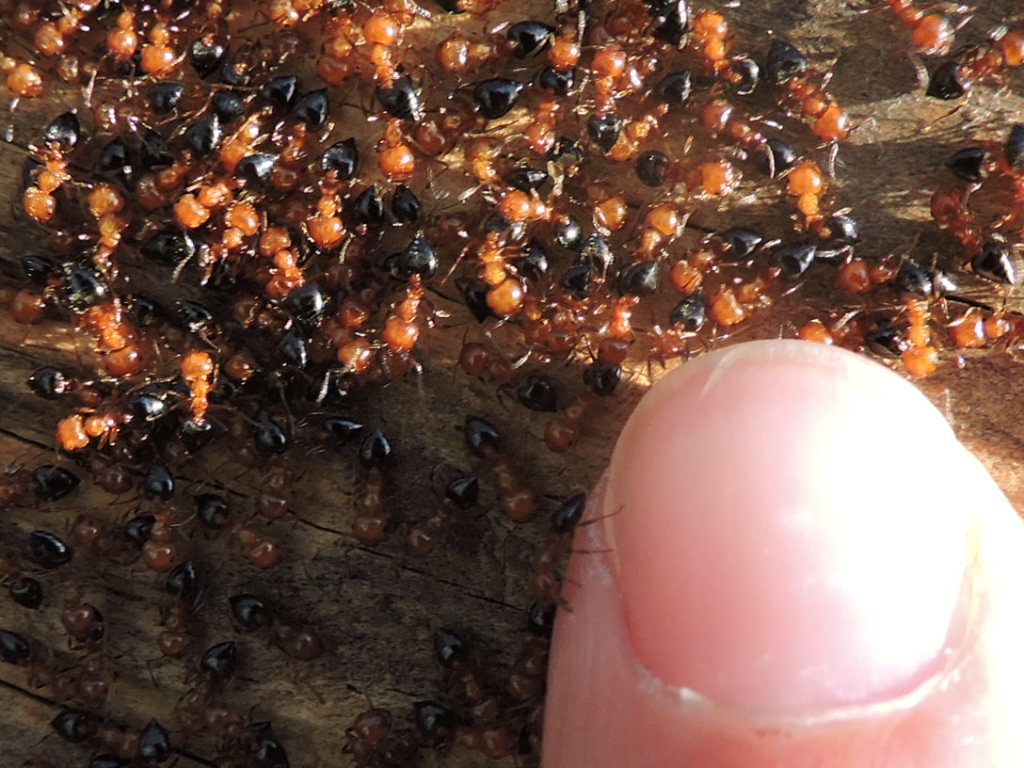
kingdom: Animalia
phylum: Arthropoda
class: Insecta
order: Hymenoptera
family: Formicidae
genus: Crematogaster
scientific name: Crematogaster laeviuscula
